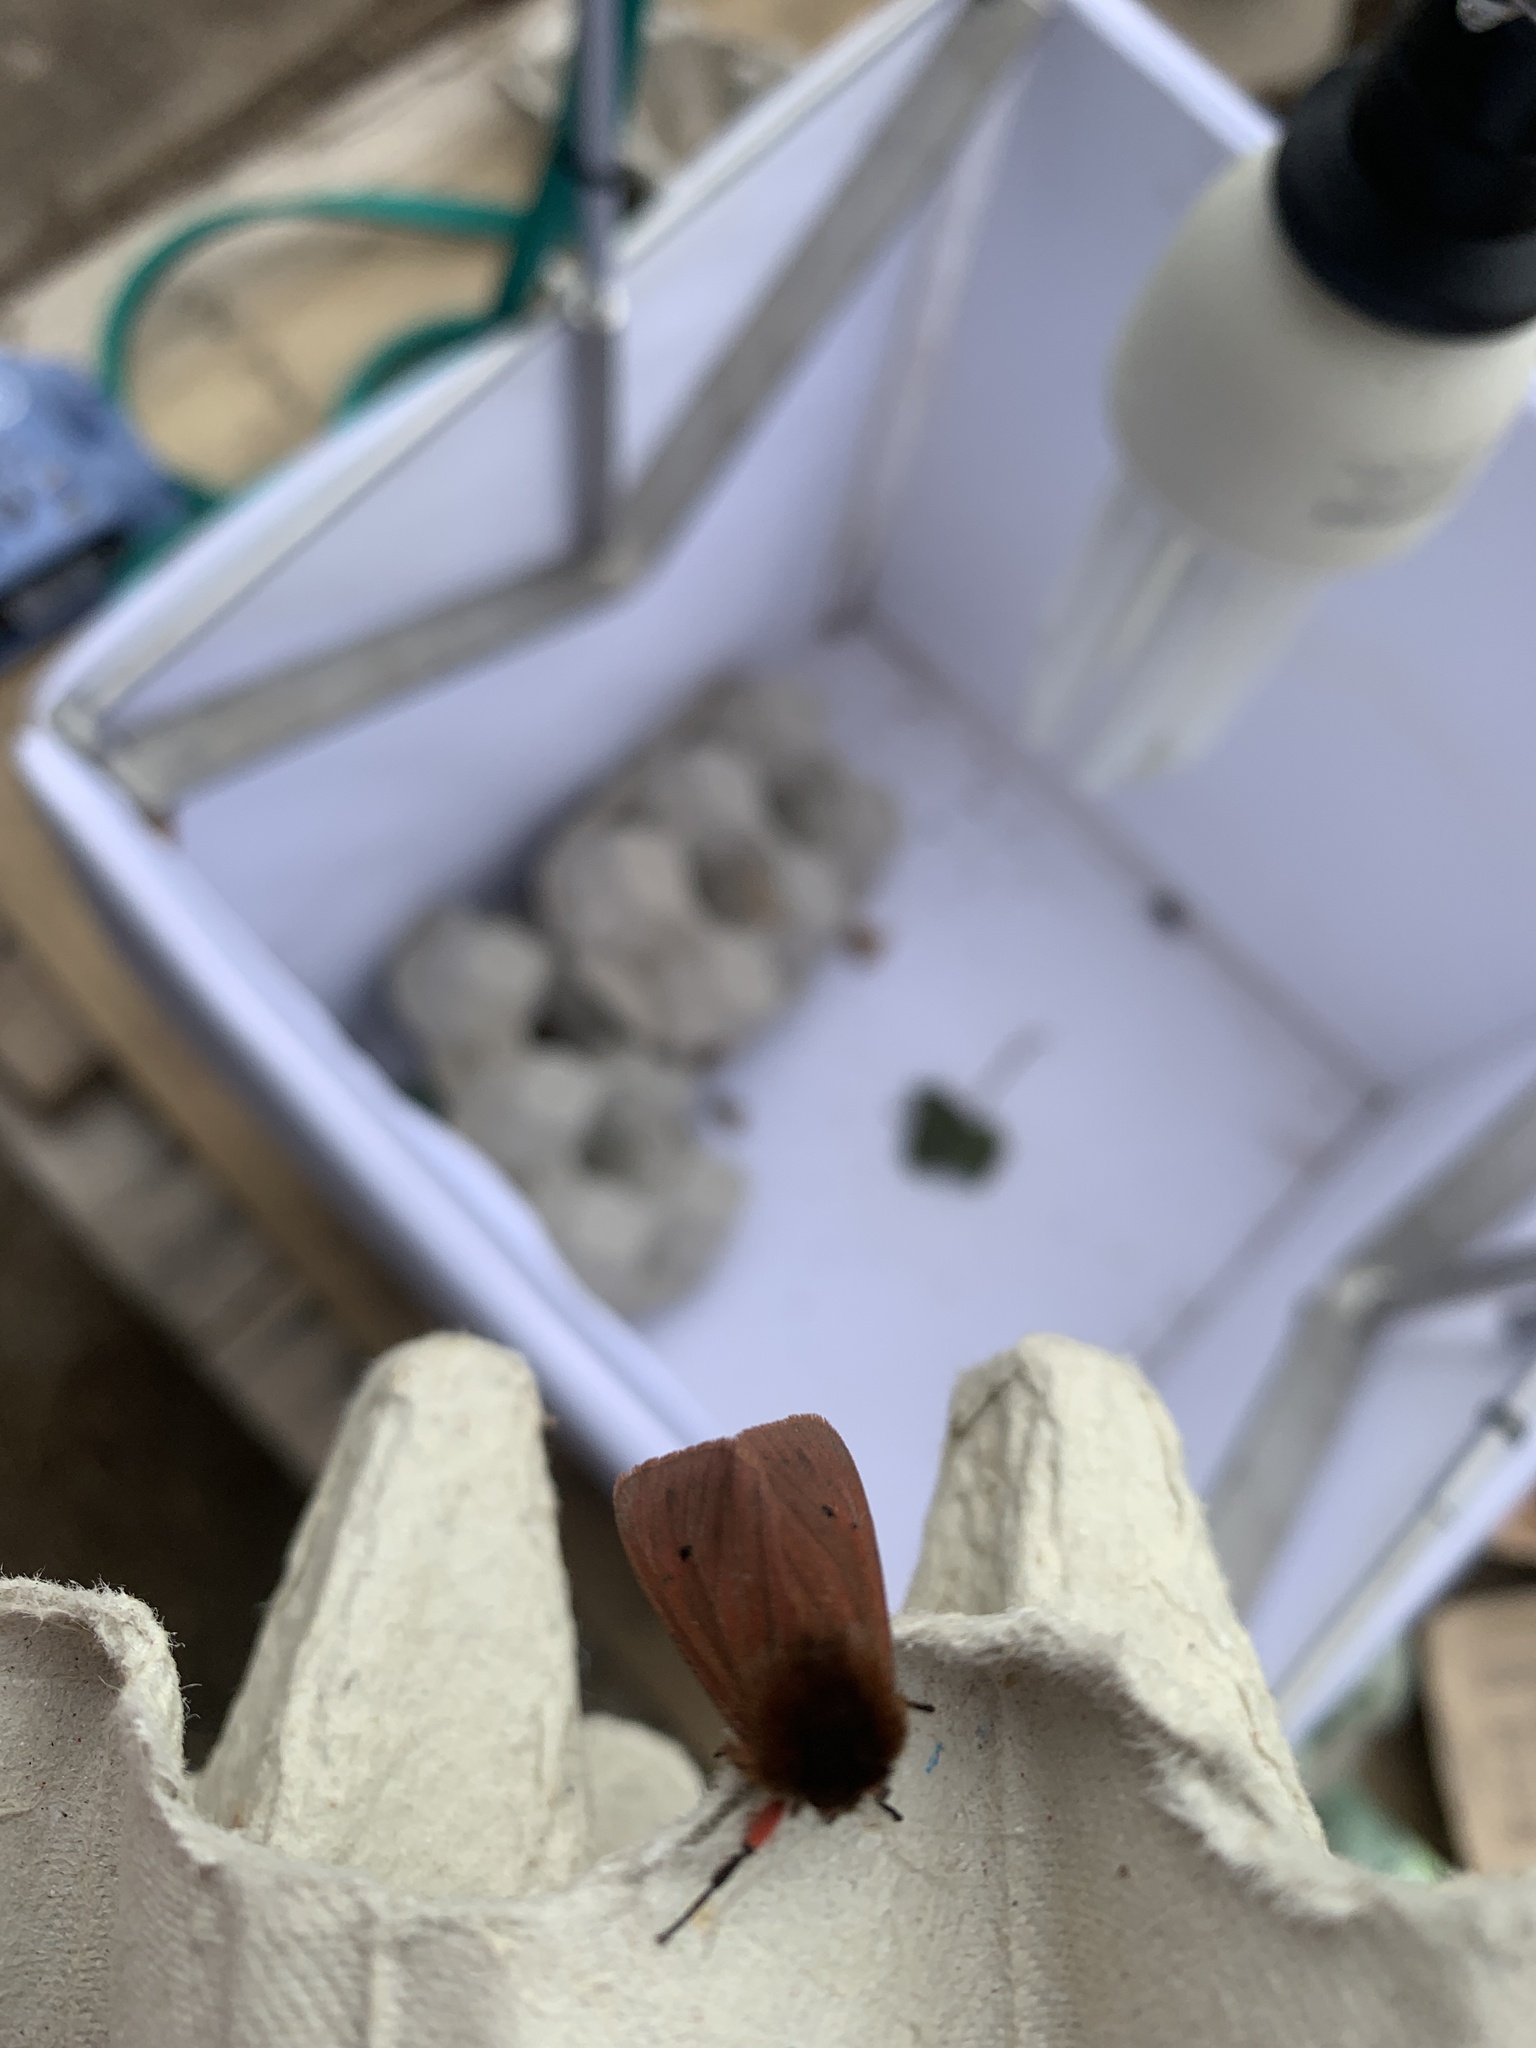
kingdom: Animalia
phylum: Arthropoda
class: Insecta
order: Lepidoptera
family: Erebidae
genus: Phragmatobia
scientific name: Phragmatobia fuliginosa
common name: Ruby tiger
